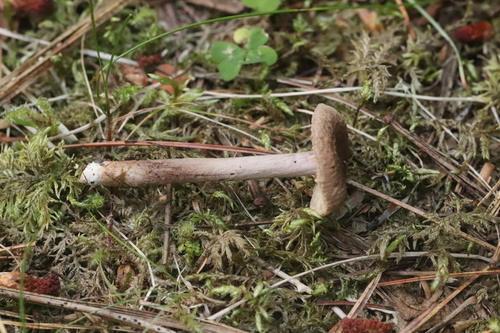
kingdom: Fungi
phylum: Basidiomycota
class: Agaricomycetes
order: Agaricales
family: Inocybaceae
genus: Inocybe
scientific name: Inocybe lacera
